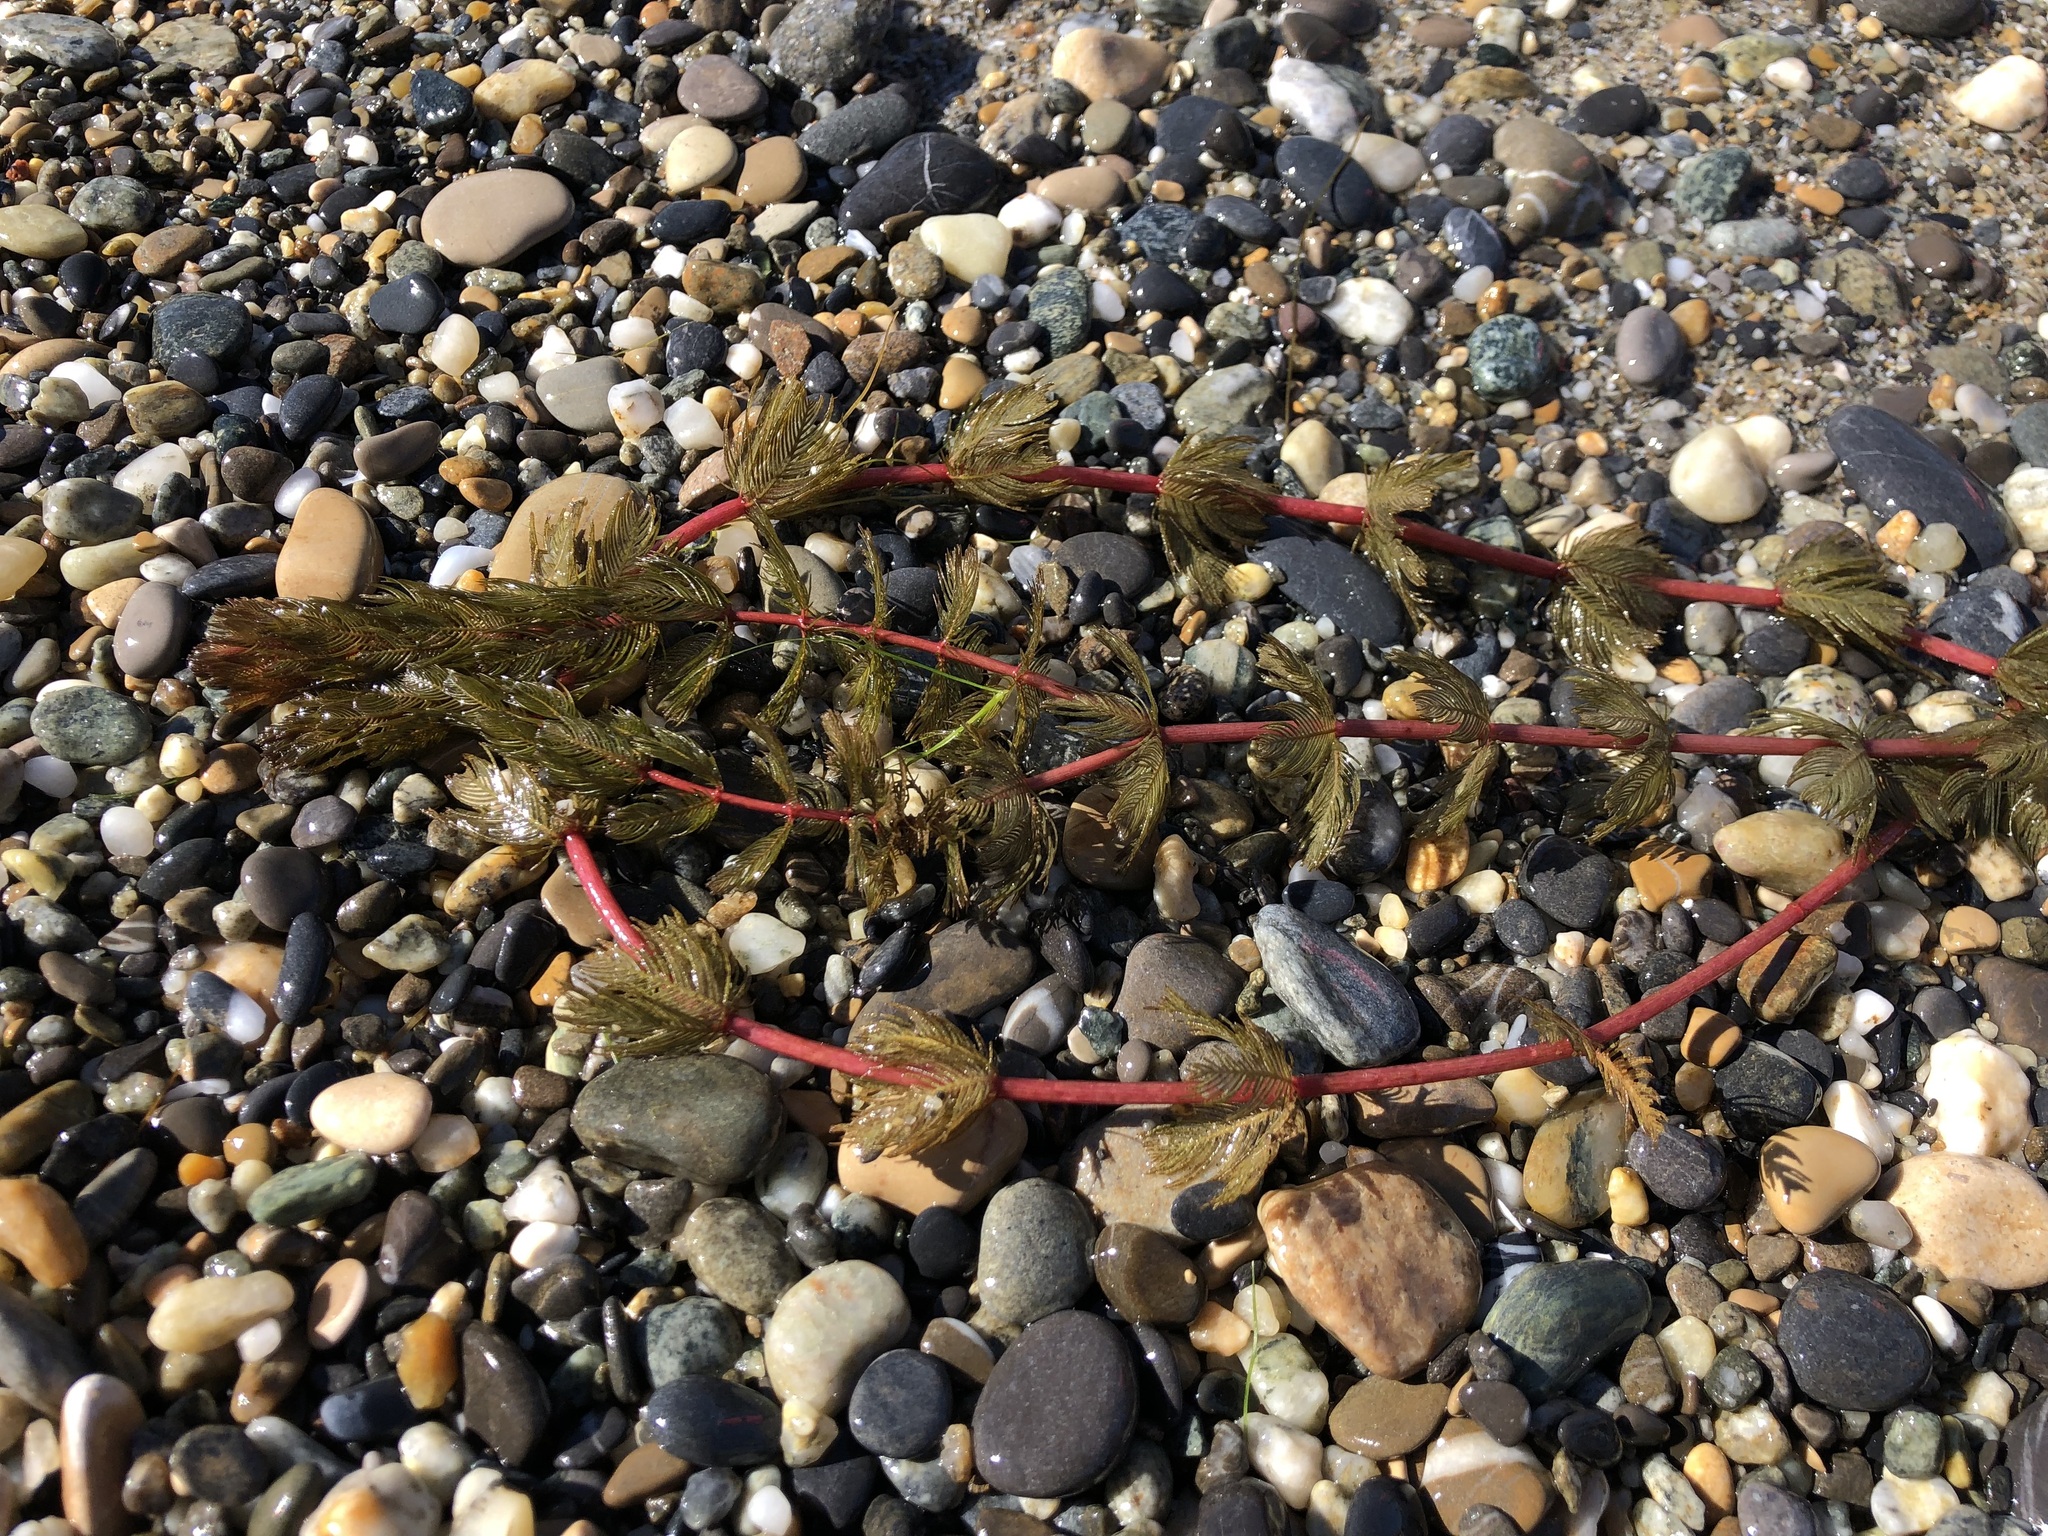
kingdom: Plantae
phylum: Tracheophyta
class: Magnoliopsida
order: Saxifragales
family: Haloragaceae
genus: Myriophyllum
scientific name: Myriophyllum spicatum
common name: Spiked water-milfoil
